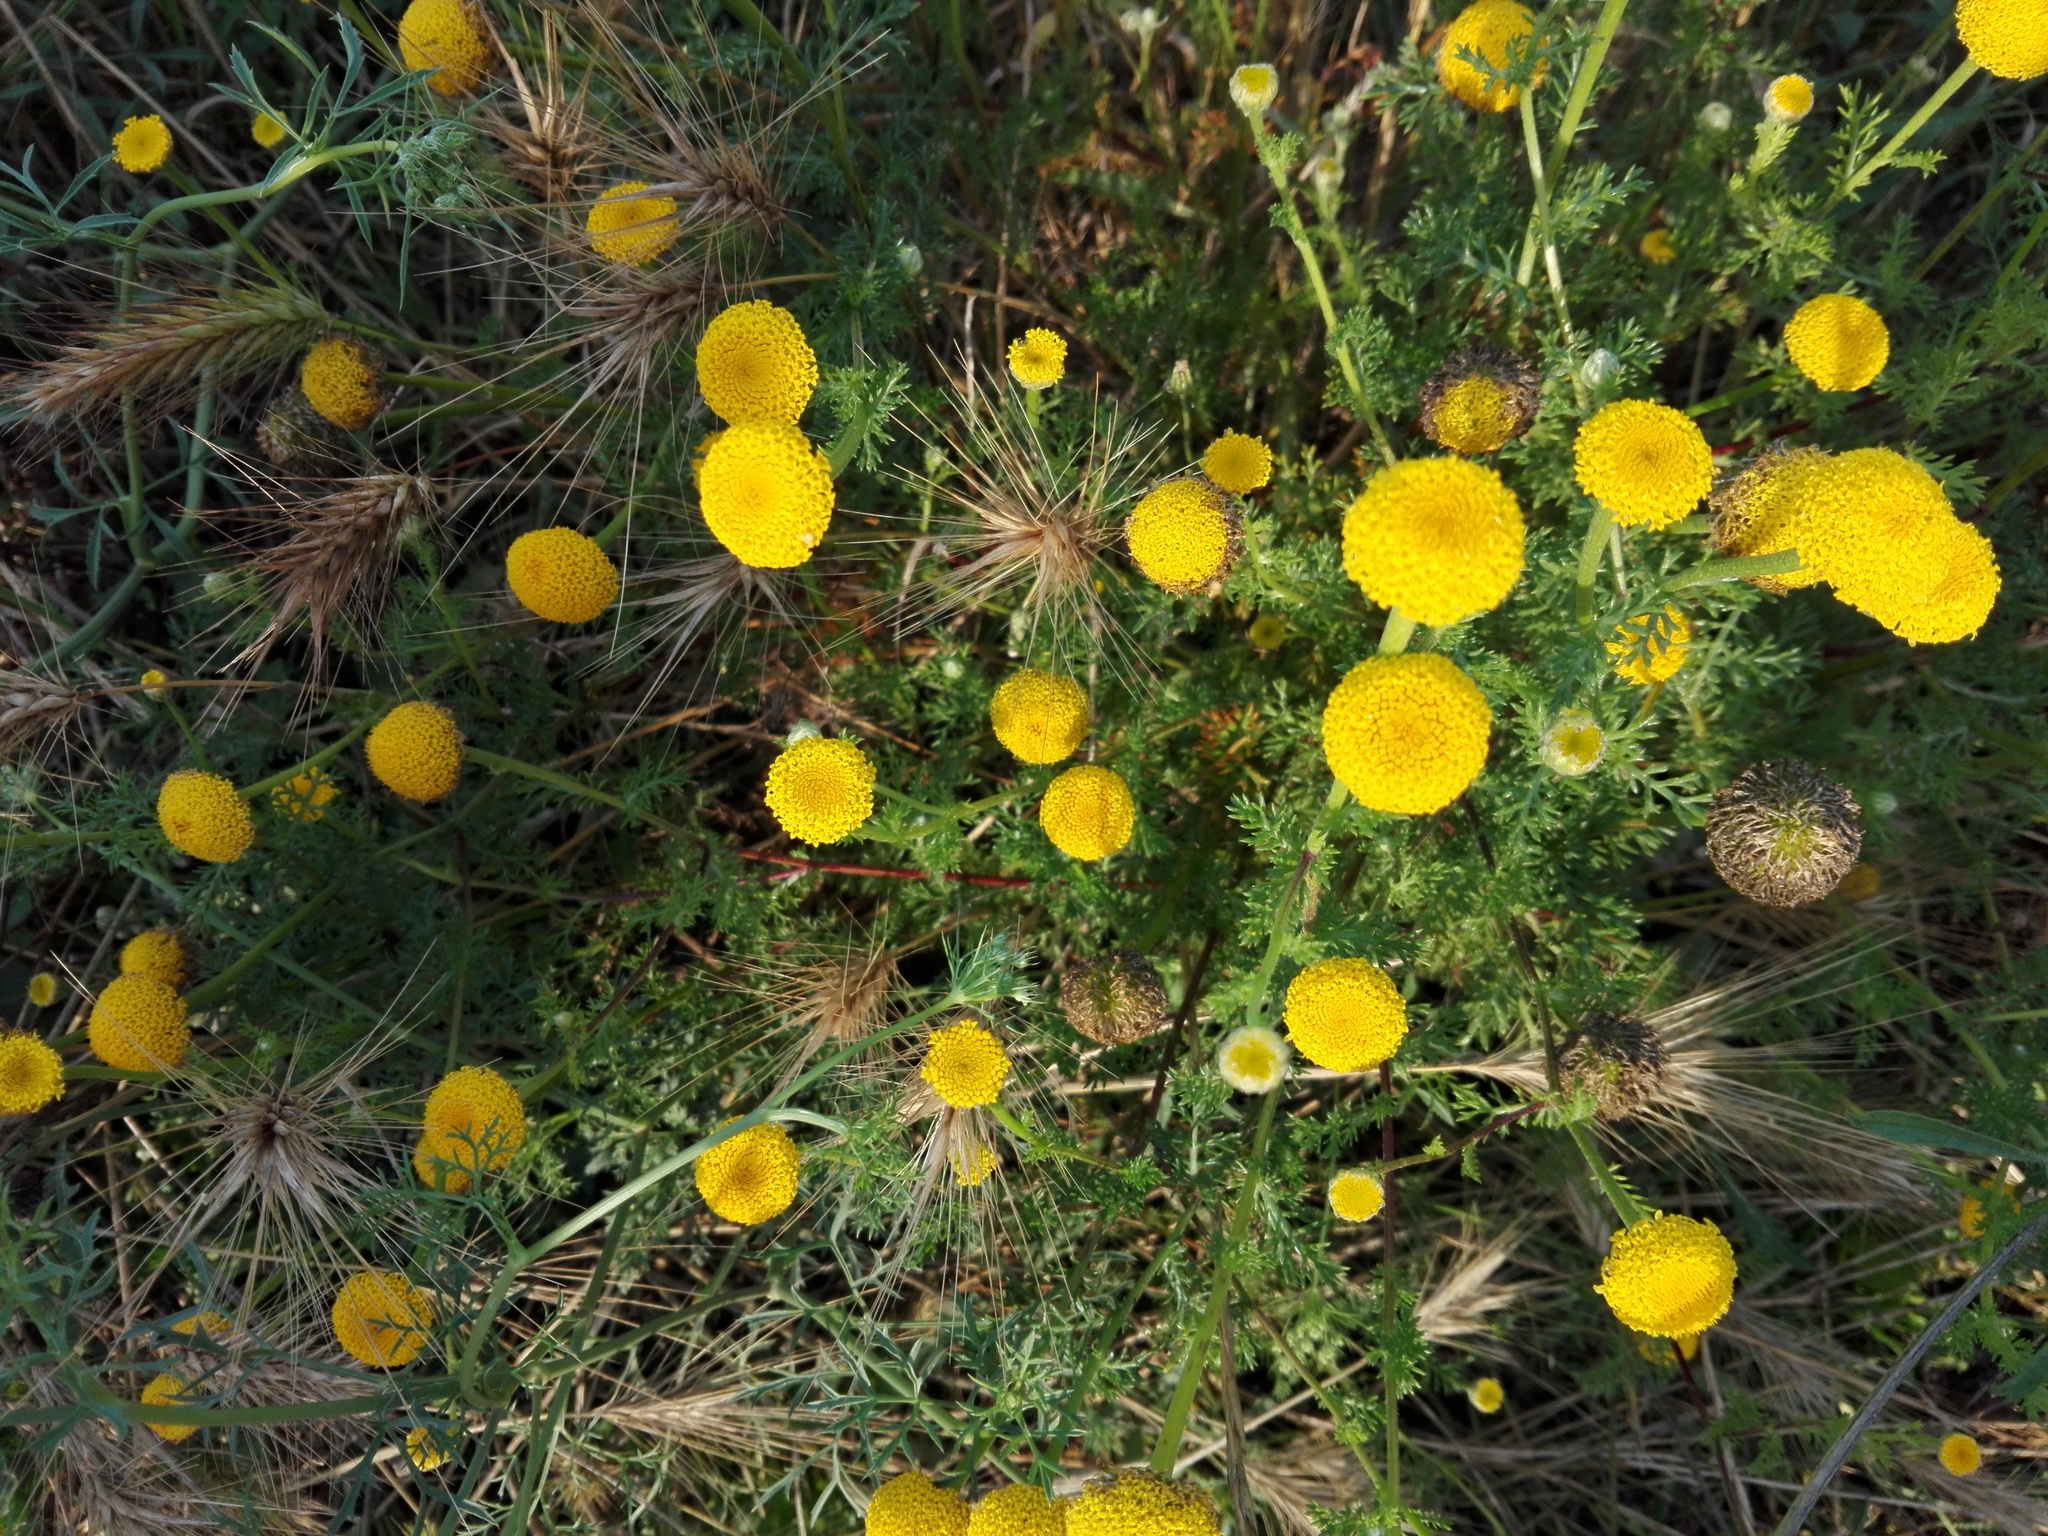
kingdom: Plantae
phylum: Tracheophyta
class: Magnoliopsida
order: Asterales
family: Asteraceae
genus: Anacyclus
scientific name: Anacyclus valentinus
